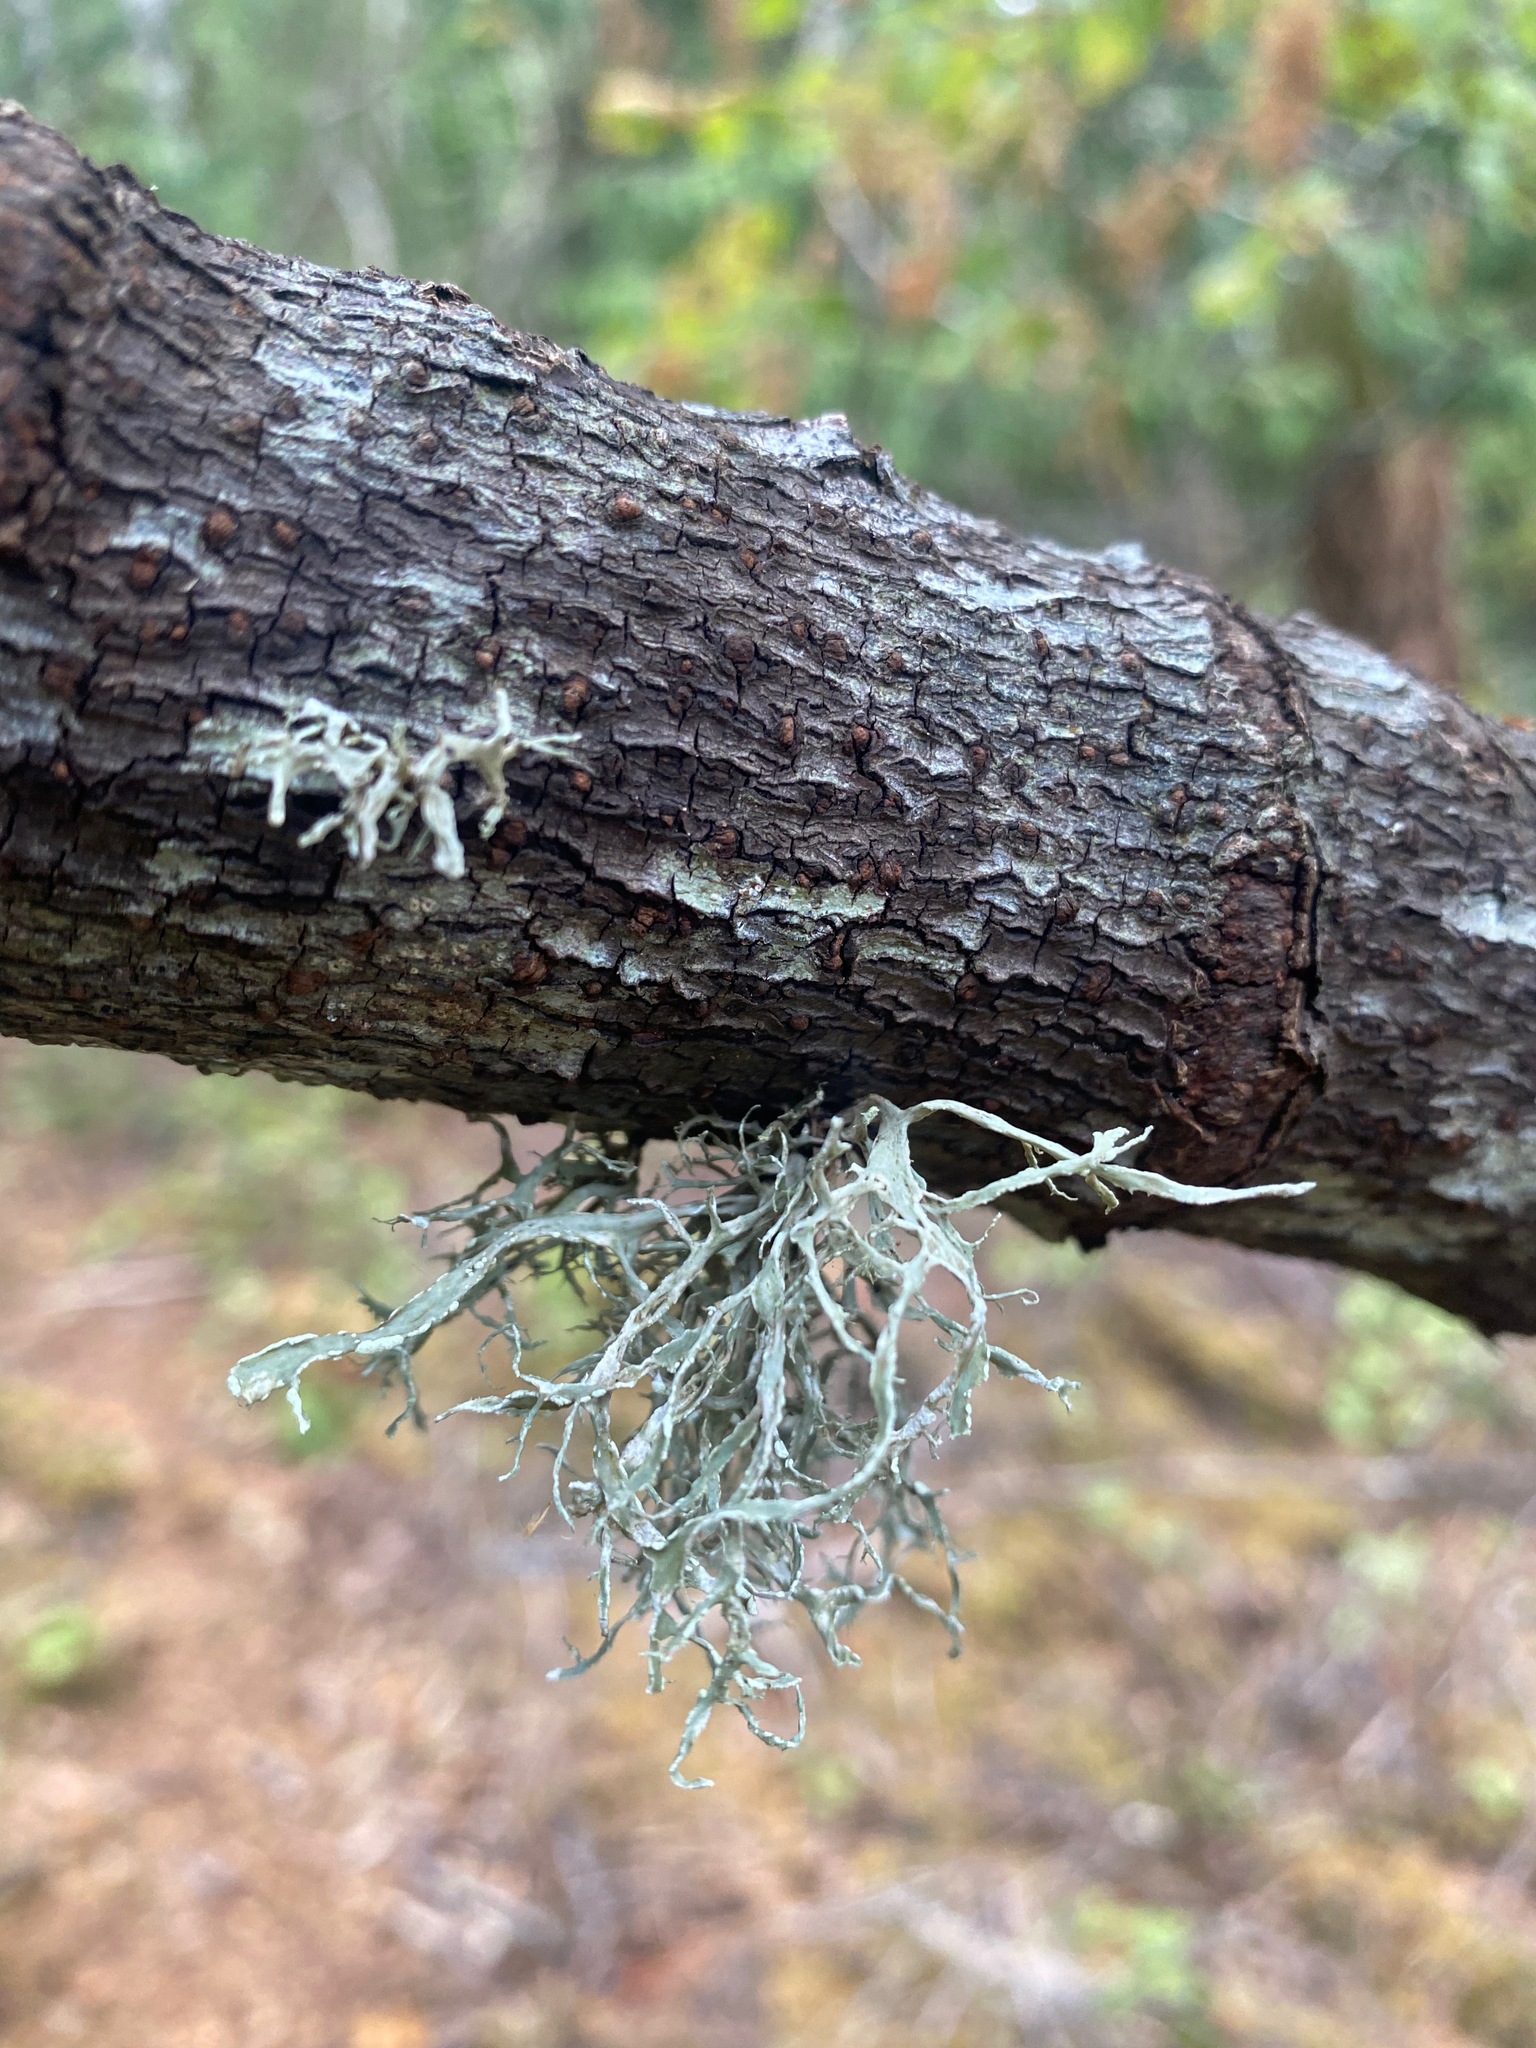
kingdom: Fungi
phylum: Ascomycota
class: Lecanoromycetes
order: Lecanorales
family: Ramalinaceae
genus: Ramalina
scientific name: Ramalina farinacea
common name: Farinose cartilage lichen
